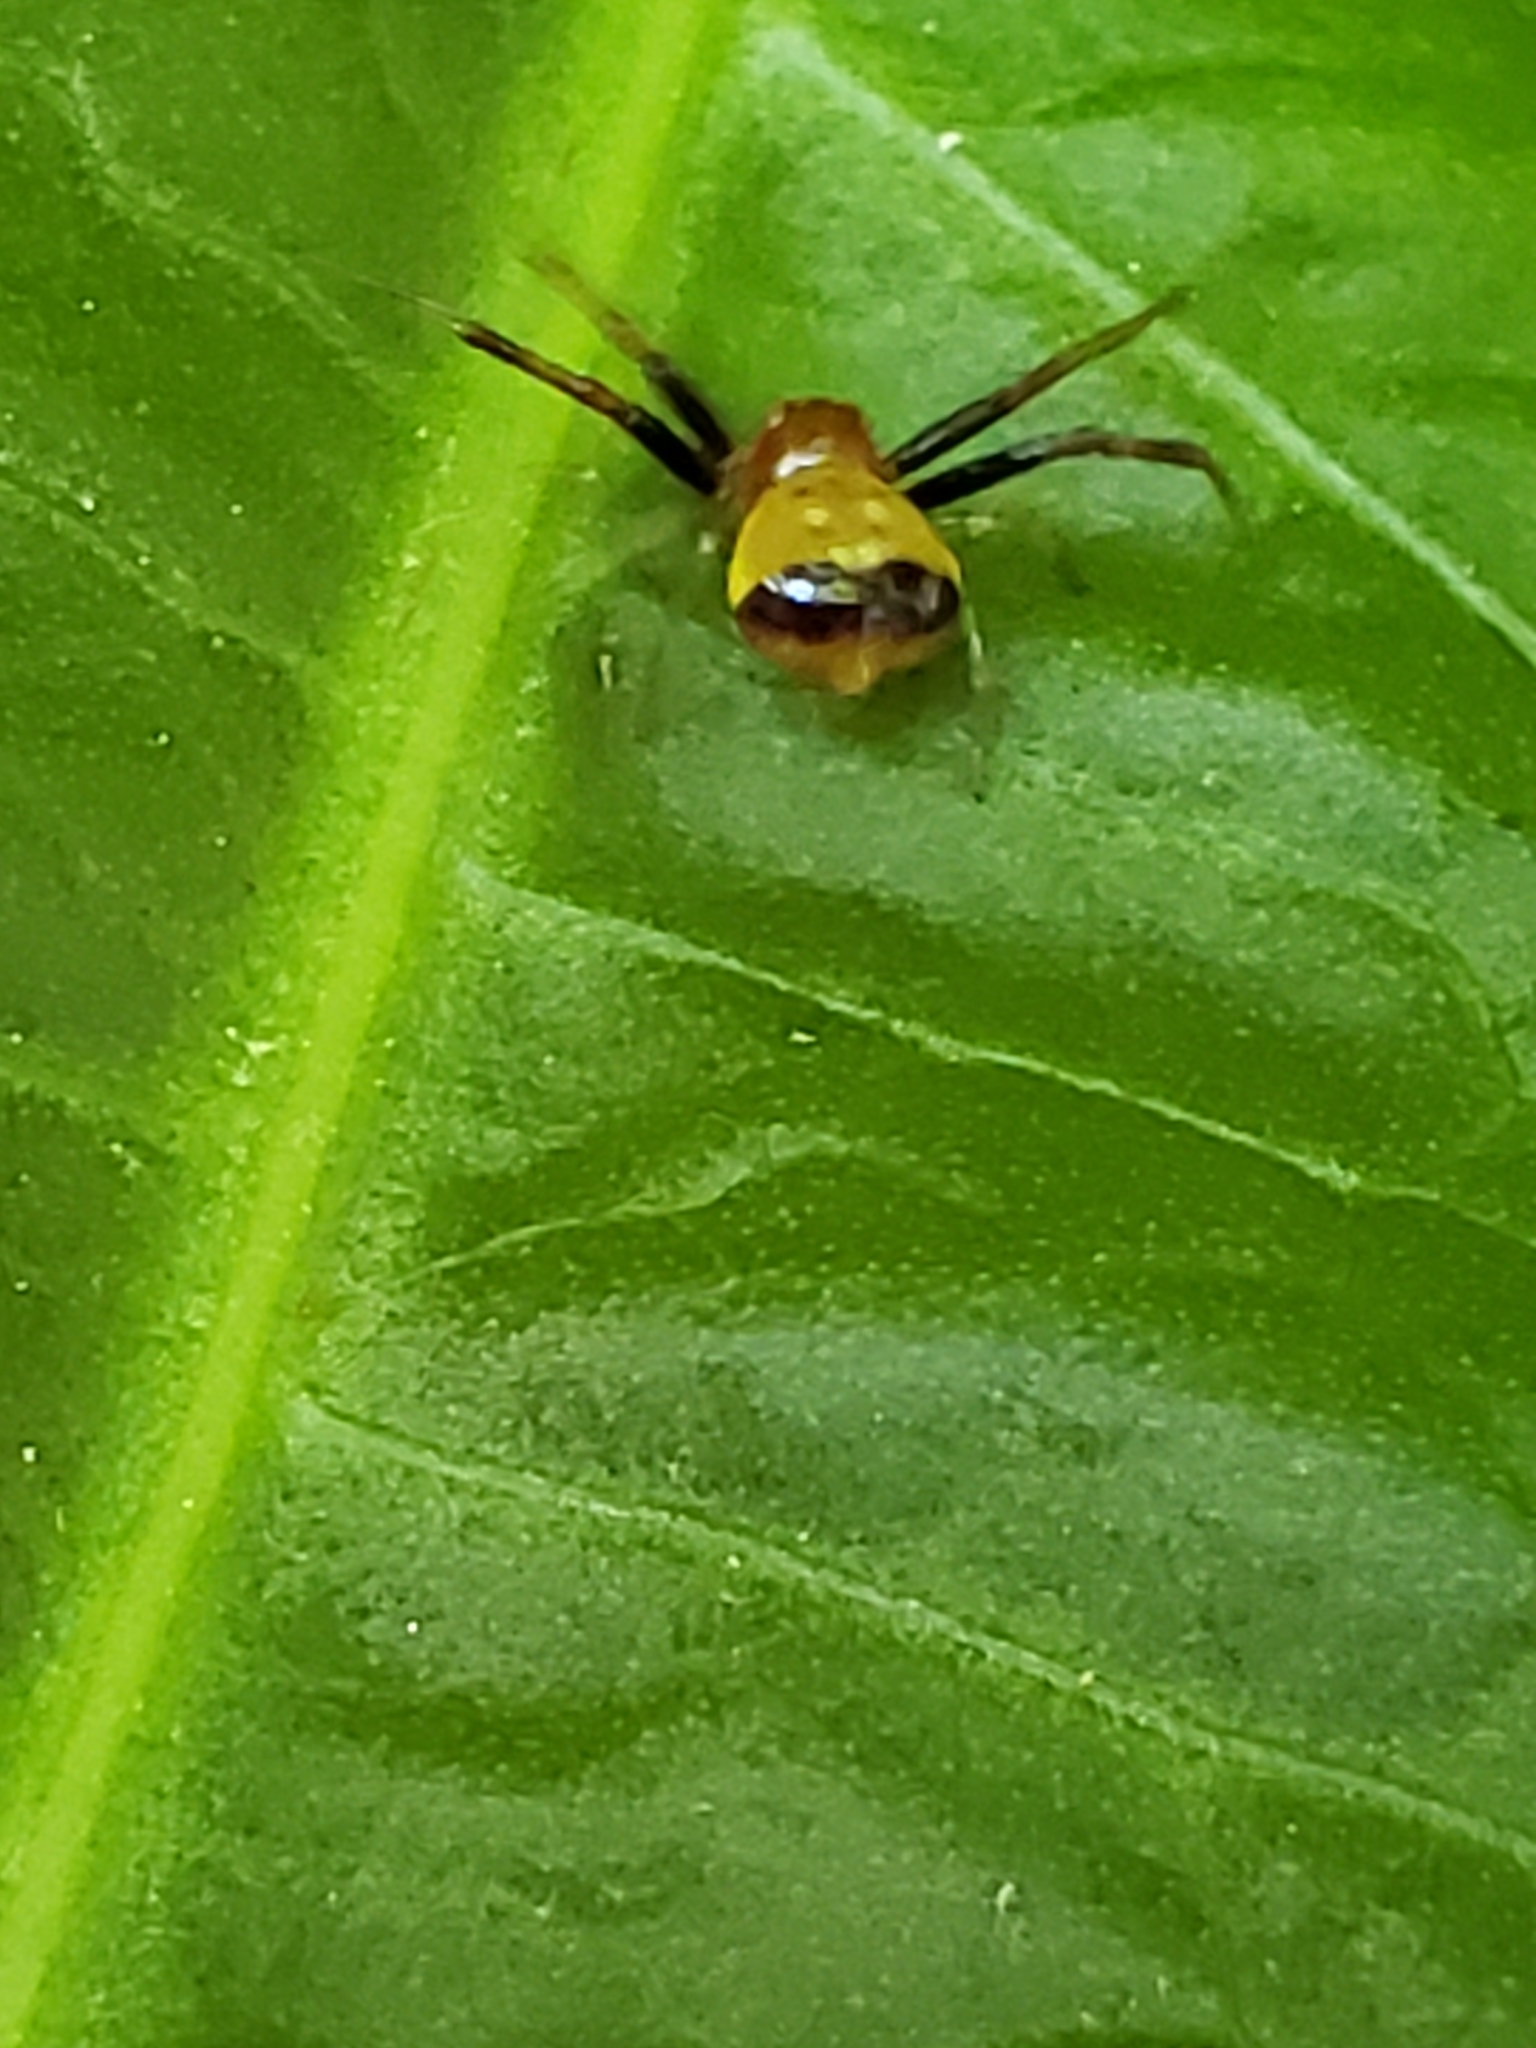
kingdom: Animalia
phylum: Arthropoda
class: Arachnida
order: Araneae
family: Thomisidae
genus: Synema
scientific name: Synema parvulum
